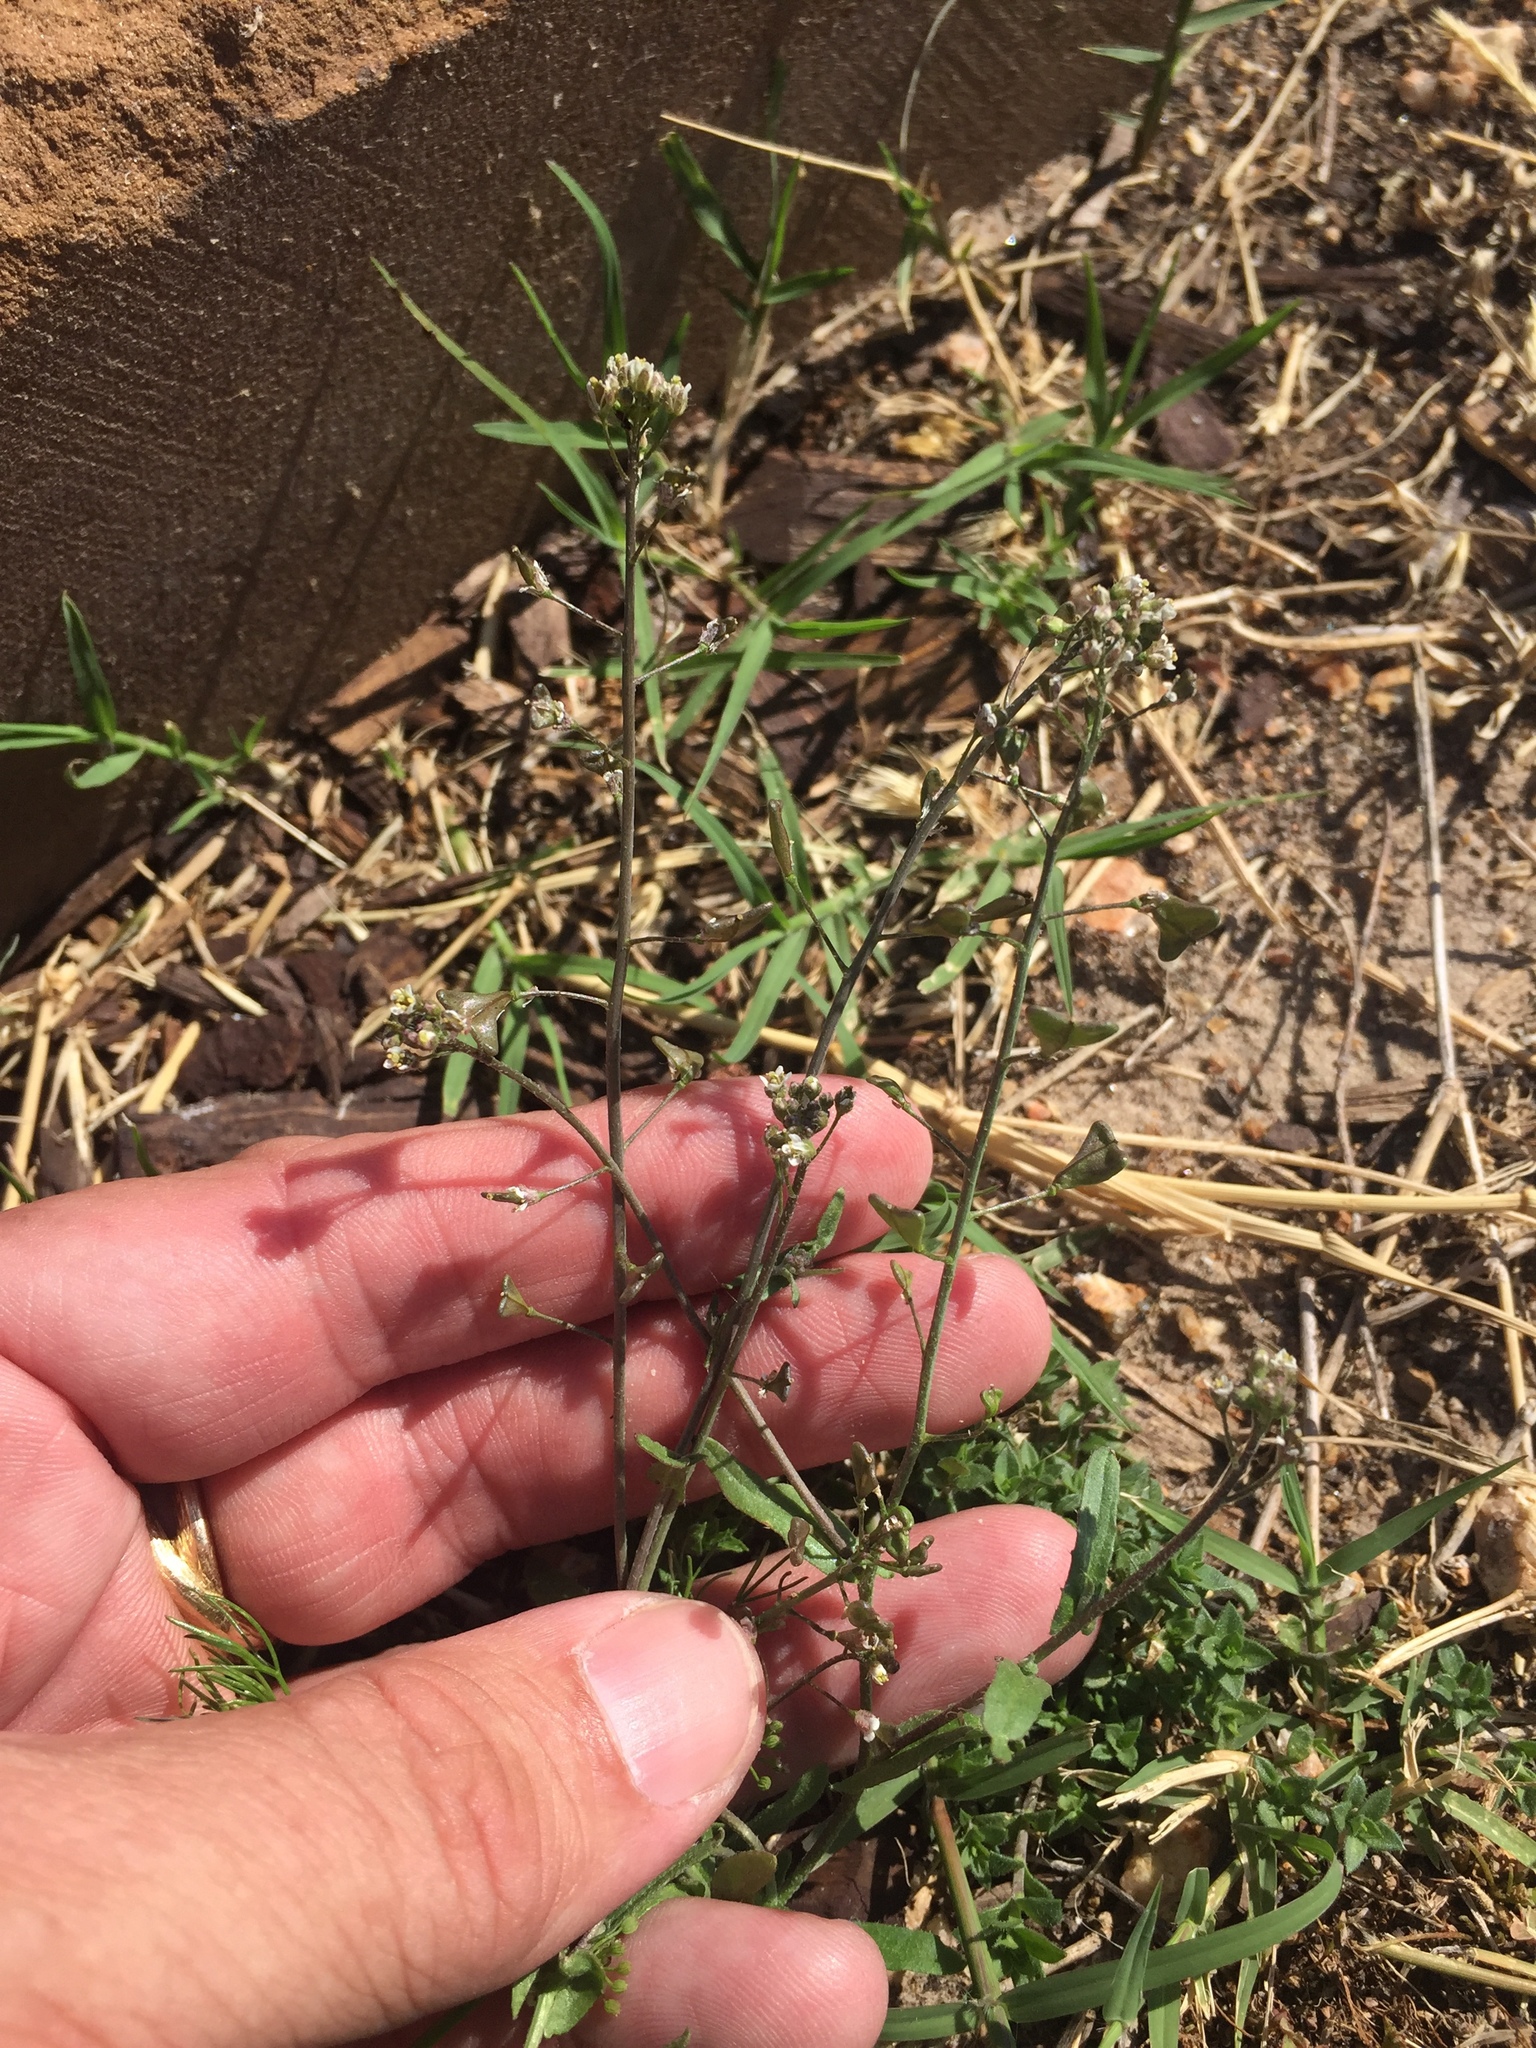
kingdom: Plantae
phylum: Tracheophyta
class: Magnoliopsida
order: Brassicales
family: Brassicaceae
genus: Capsella
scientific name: Capsella bursa-pastoris
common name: Shepherd's purse
